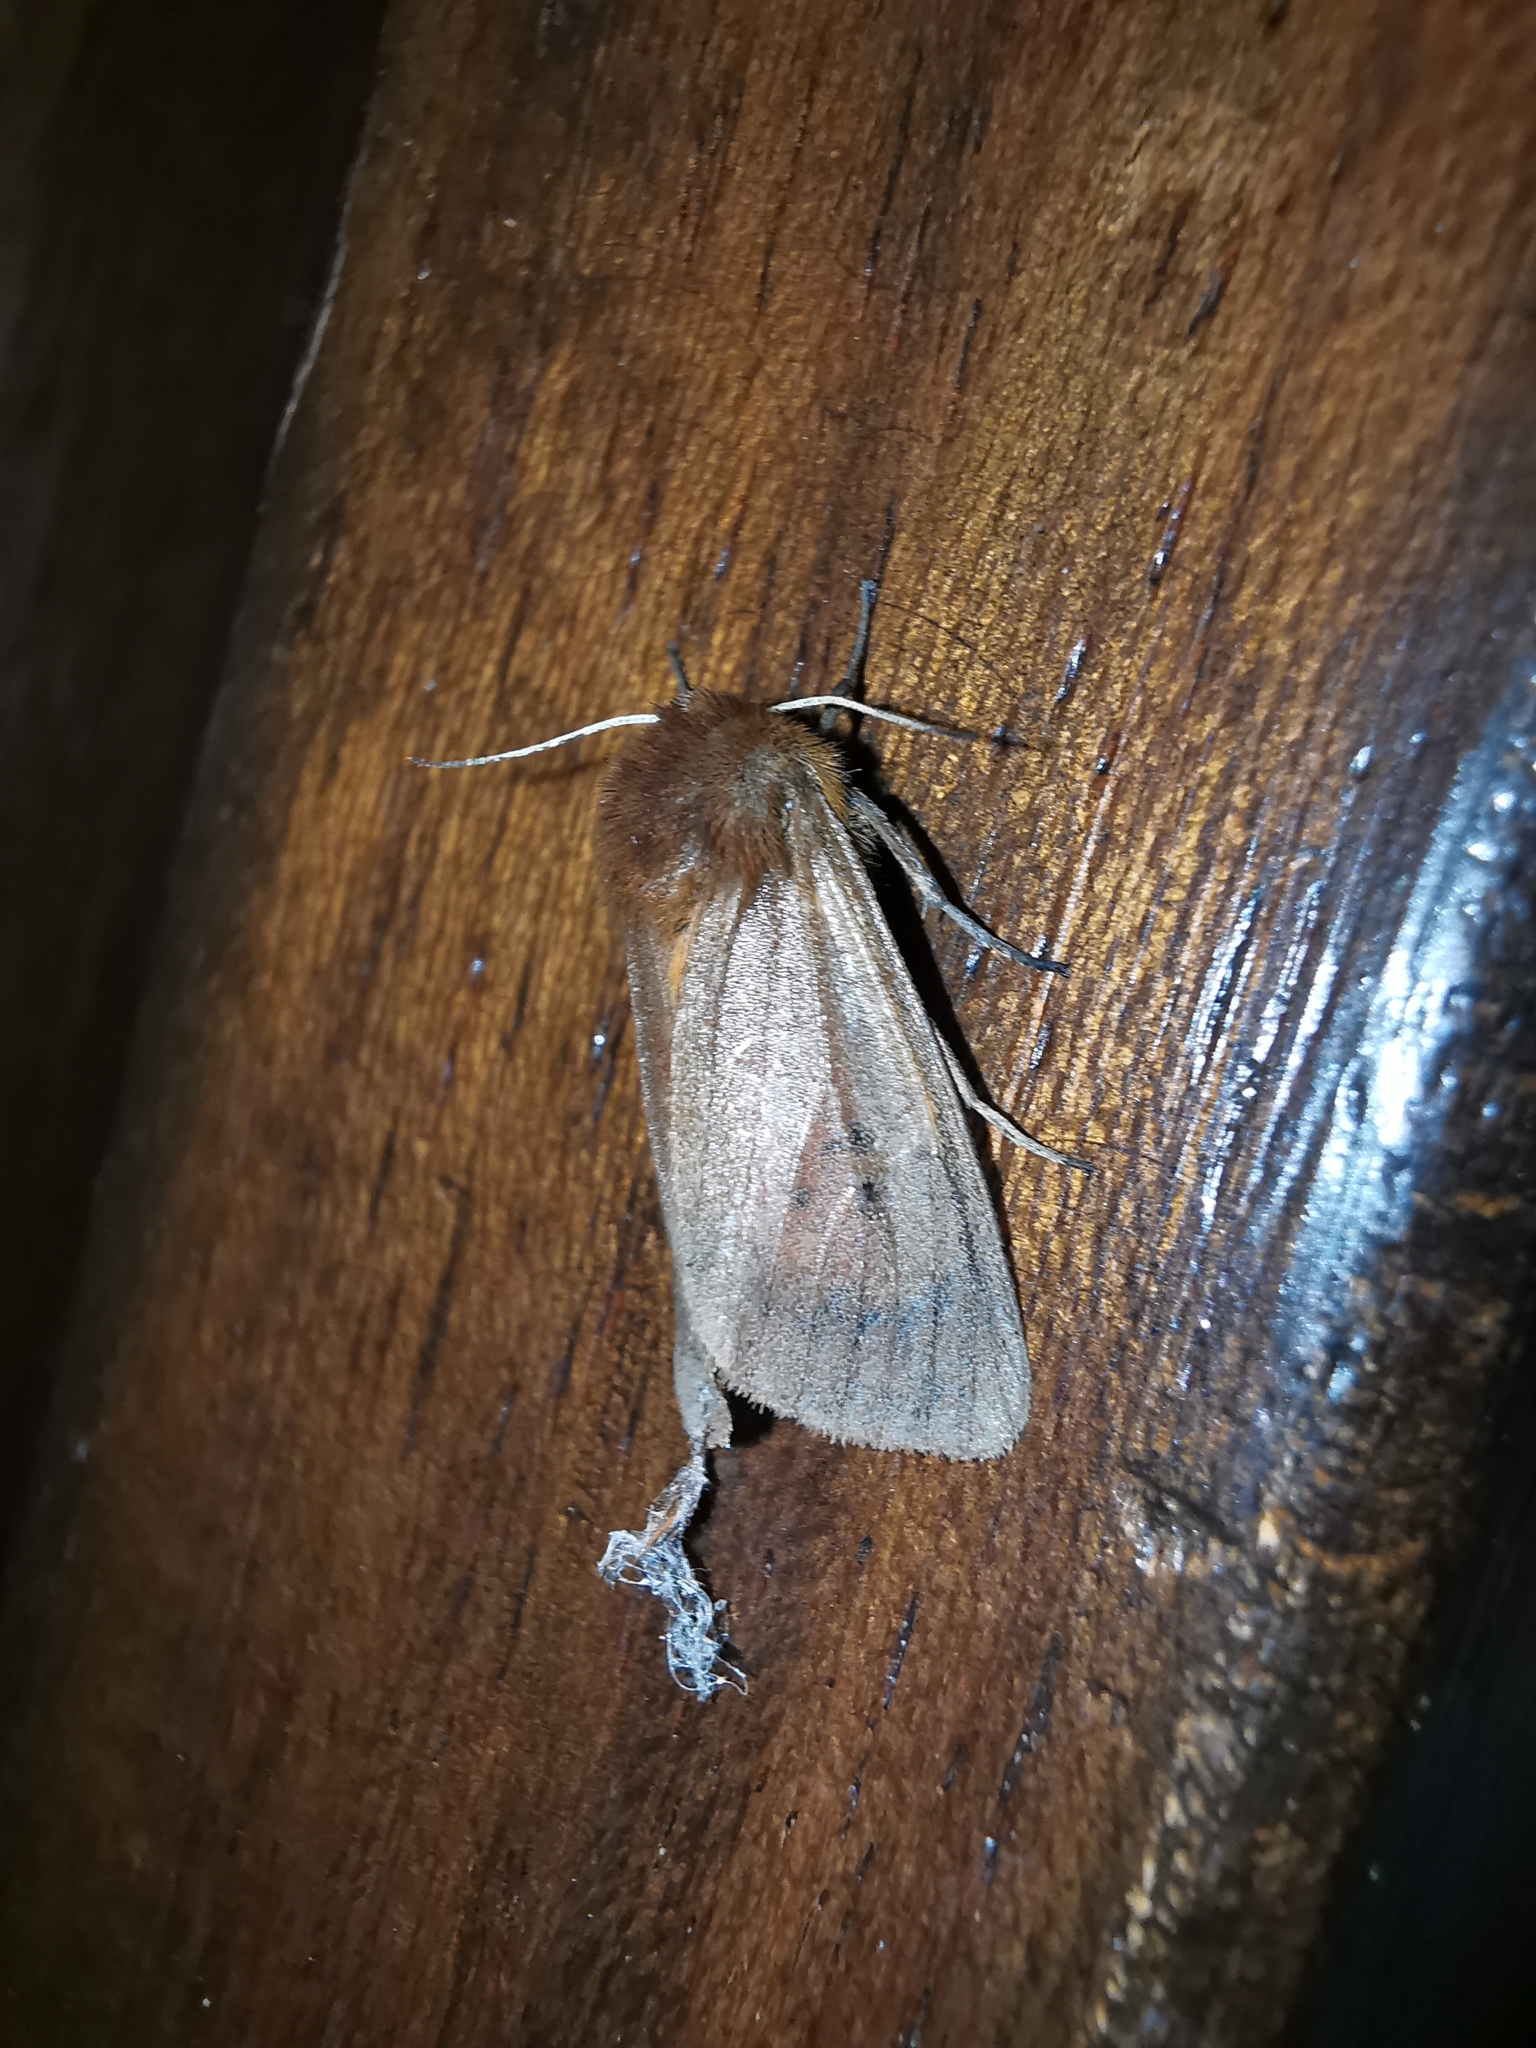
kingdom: Animalia
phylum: Arthropoda
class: Insecta
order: Lepidoptera
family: Erebidae
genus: Phragmatobia
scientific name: Phragmatobia fuliginosa
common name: Ruby tiger
